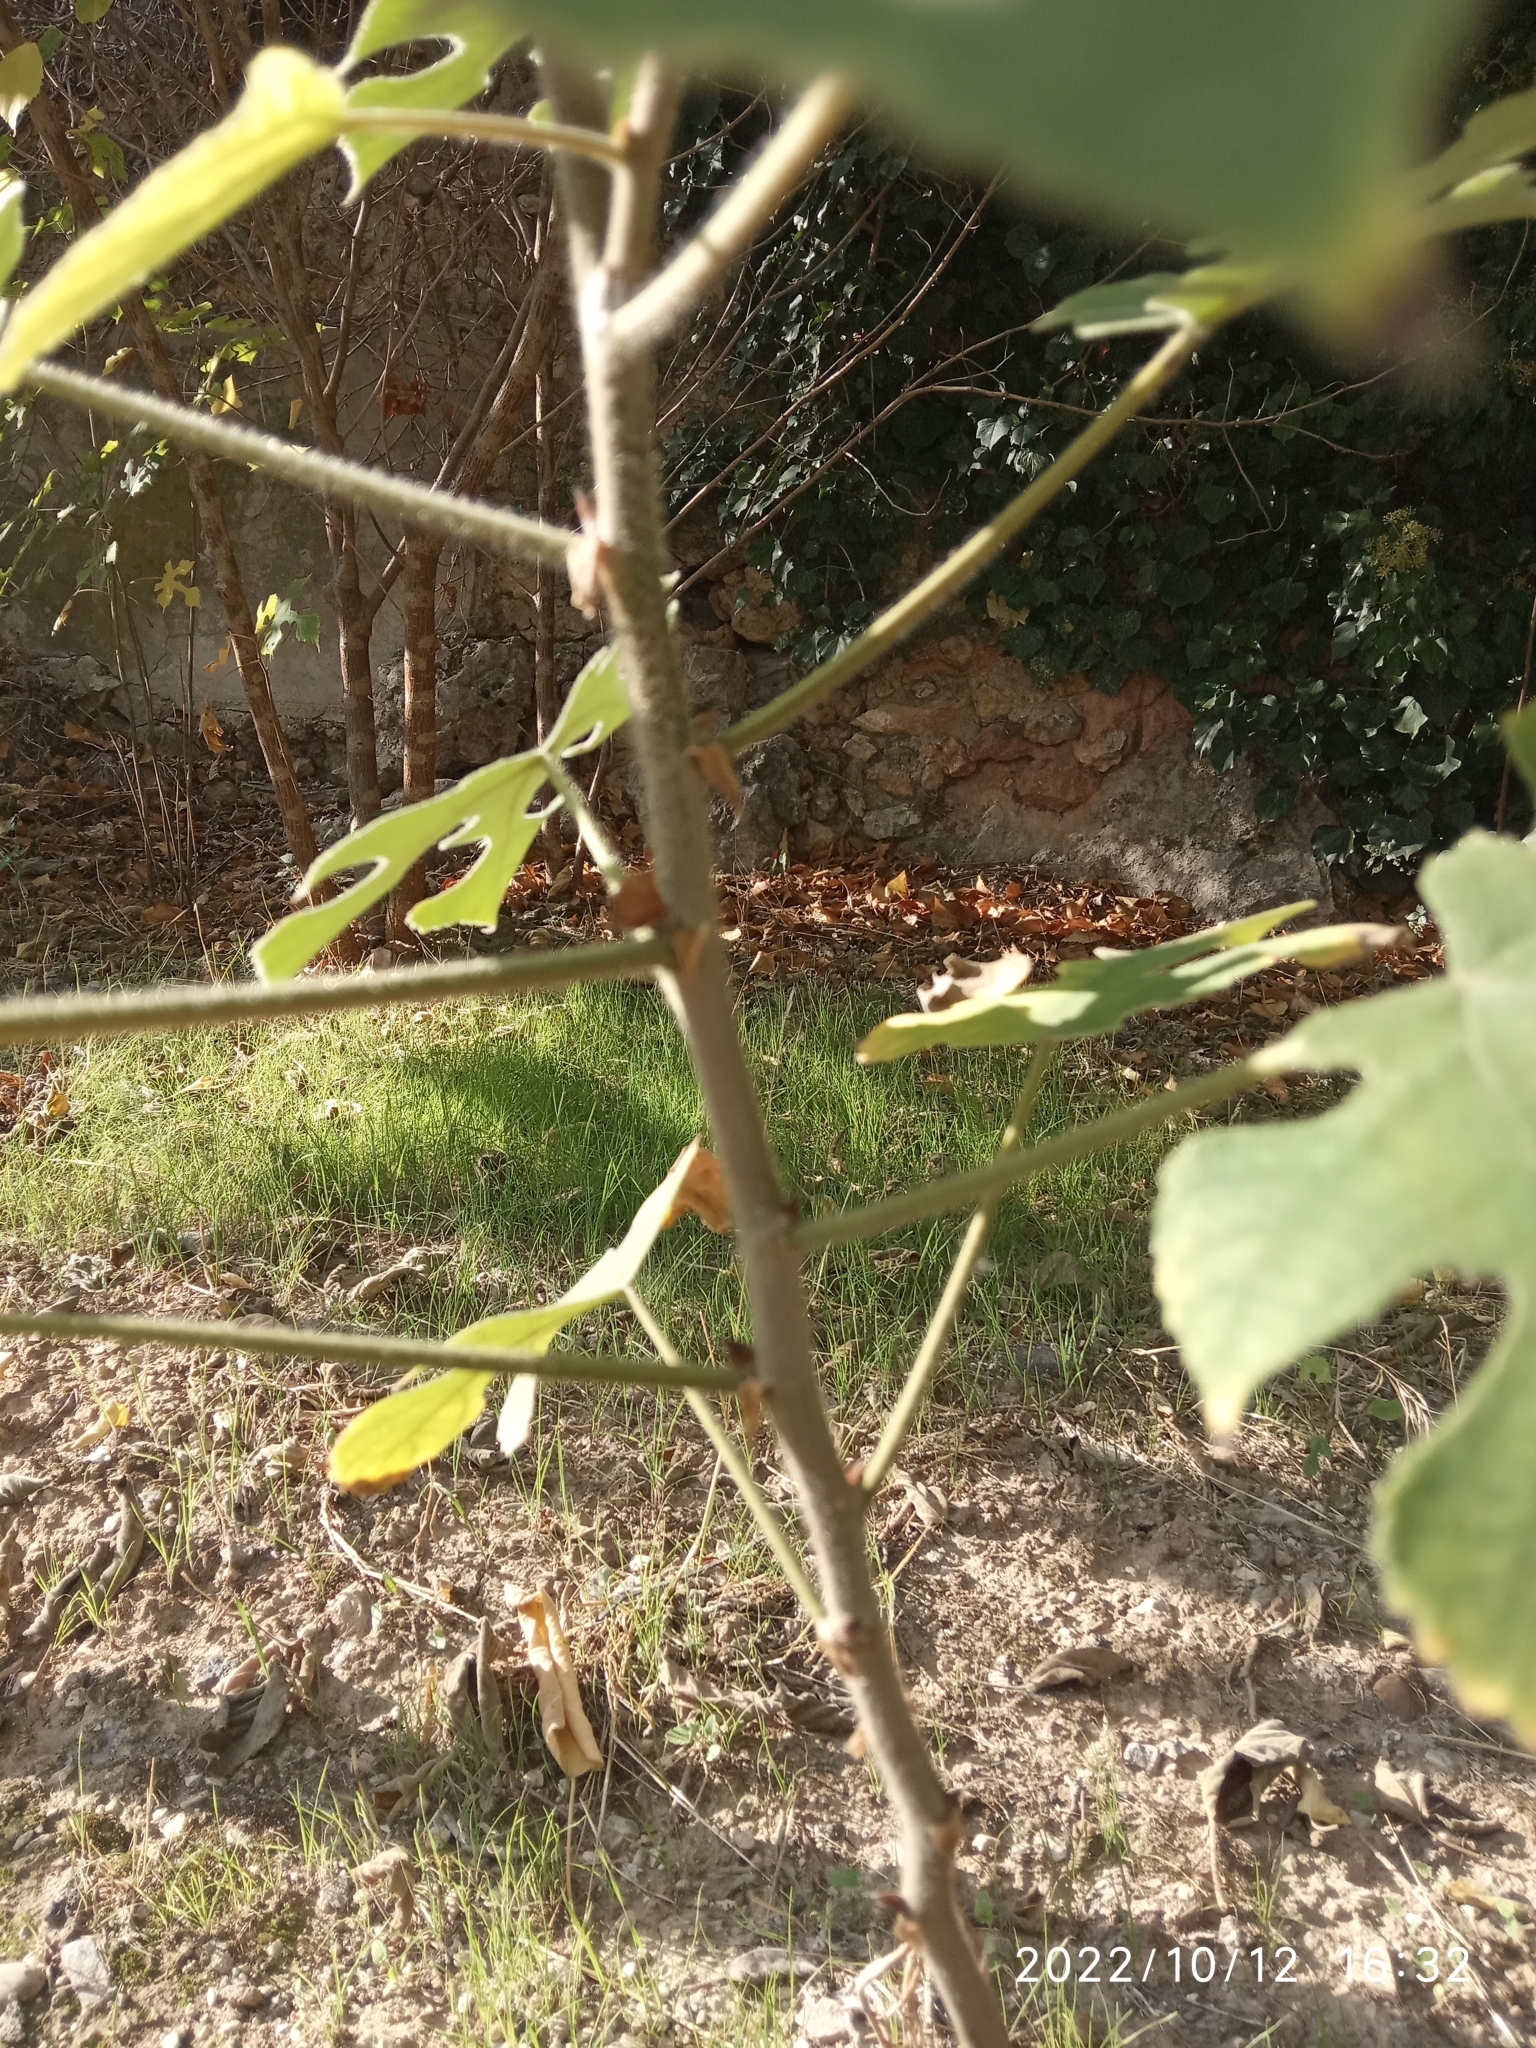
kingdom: Plantae
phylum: Tracheophyta
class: Magnoliopsida
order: Rosales
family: Moraceae
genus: Broussonetia
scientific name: Broussonetia papyrifera
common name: Paper mulberry
